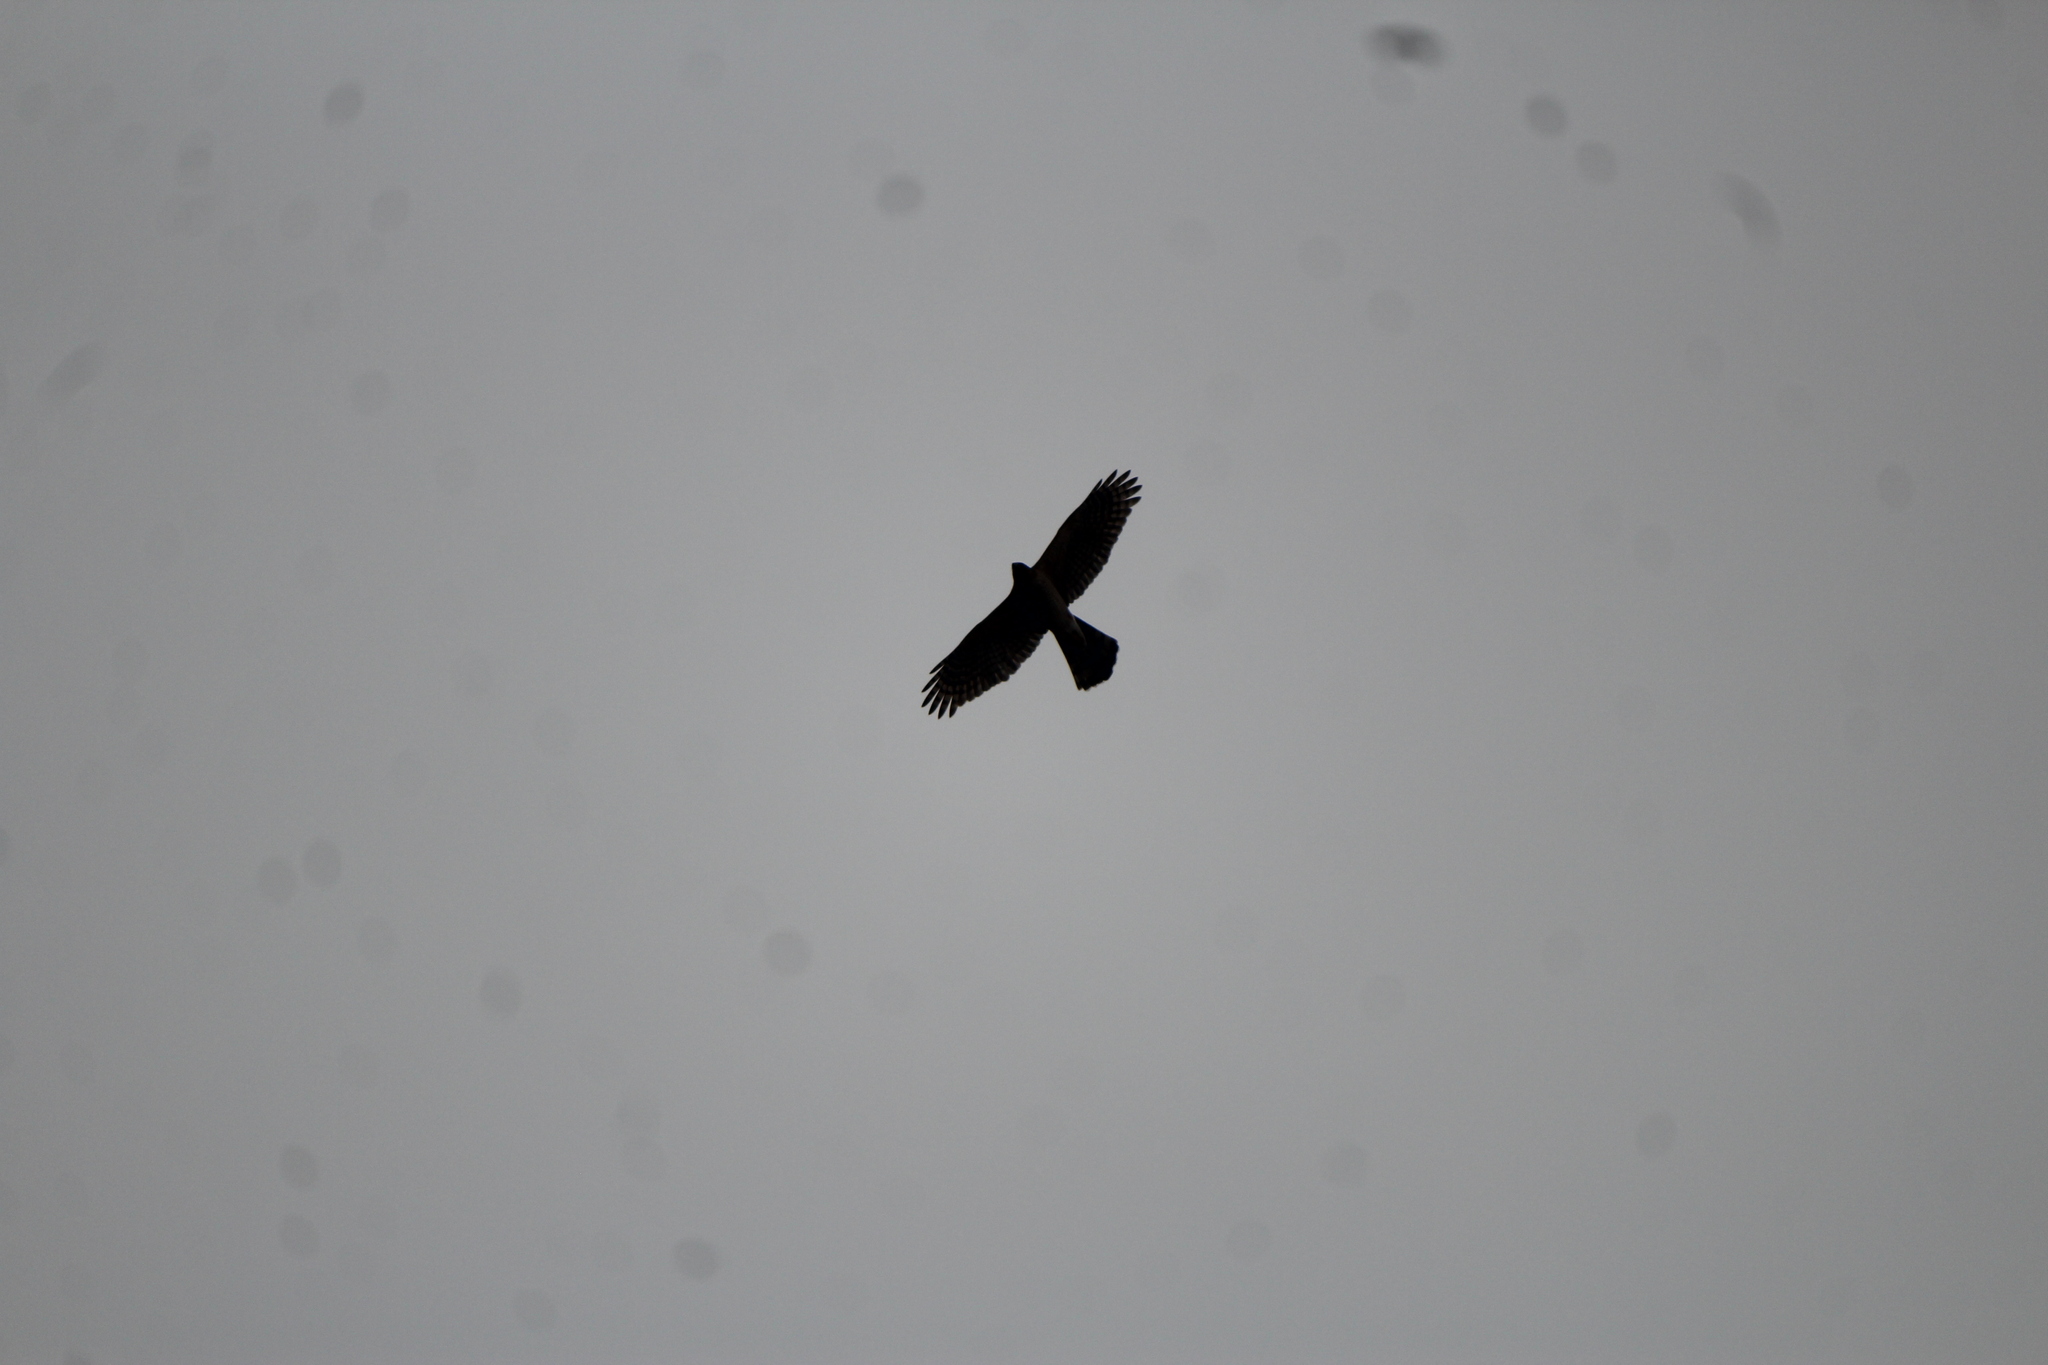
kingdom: Animalia
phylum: Chordata
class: Aves
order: Accipitriformes
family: Accipitridae
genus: Accipiter
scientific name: Accipiter cooperii
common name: Cooper's hawk
